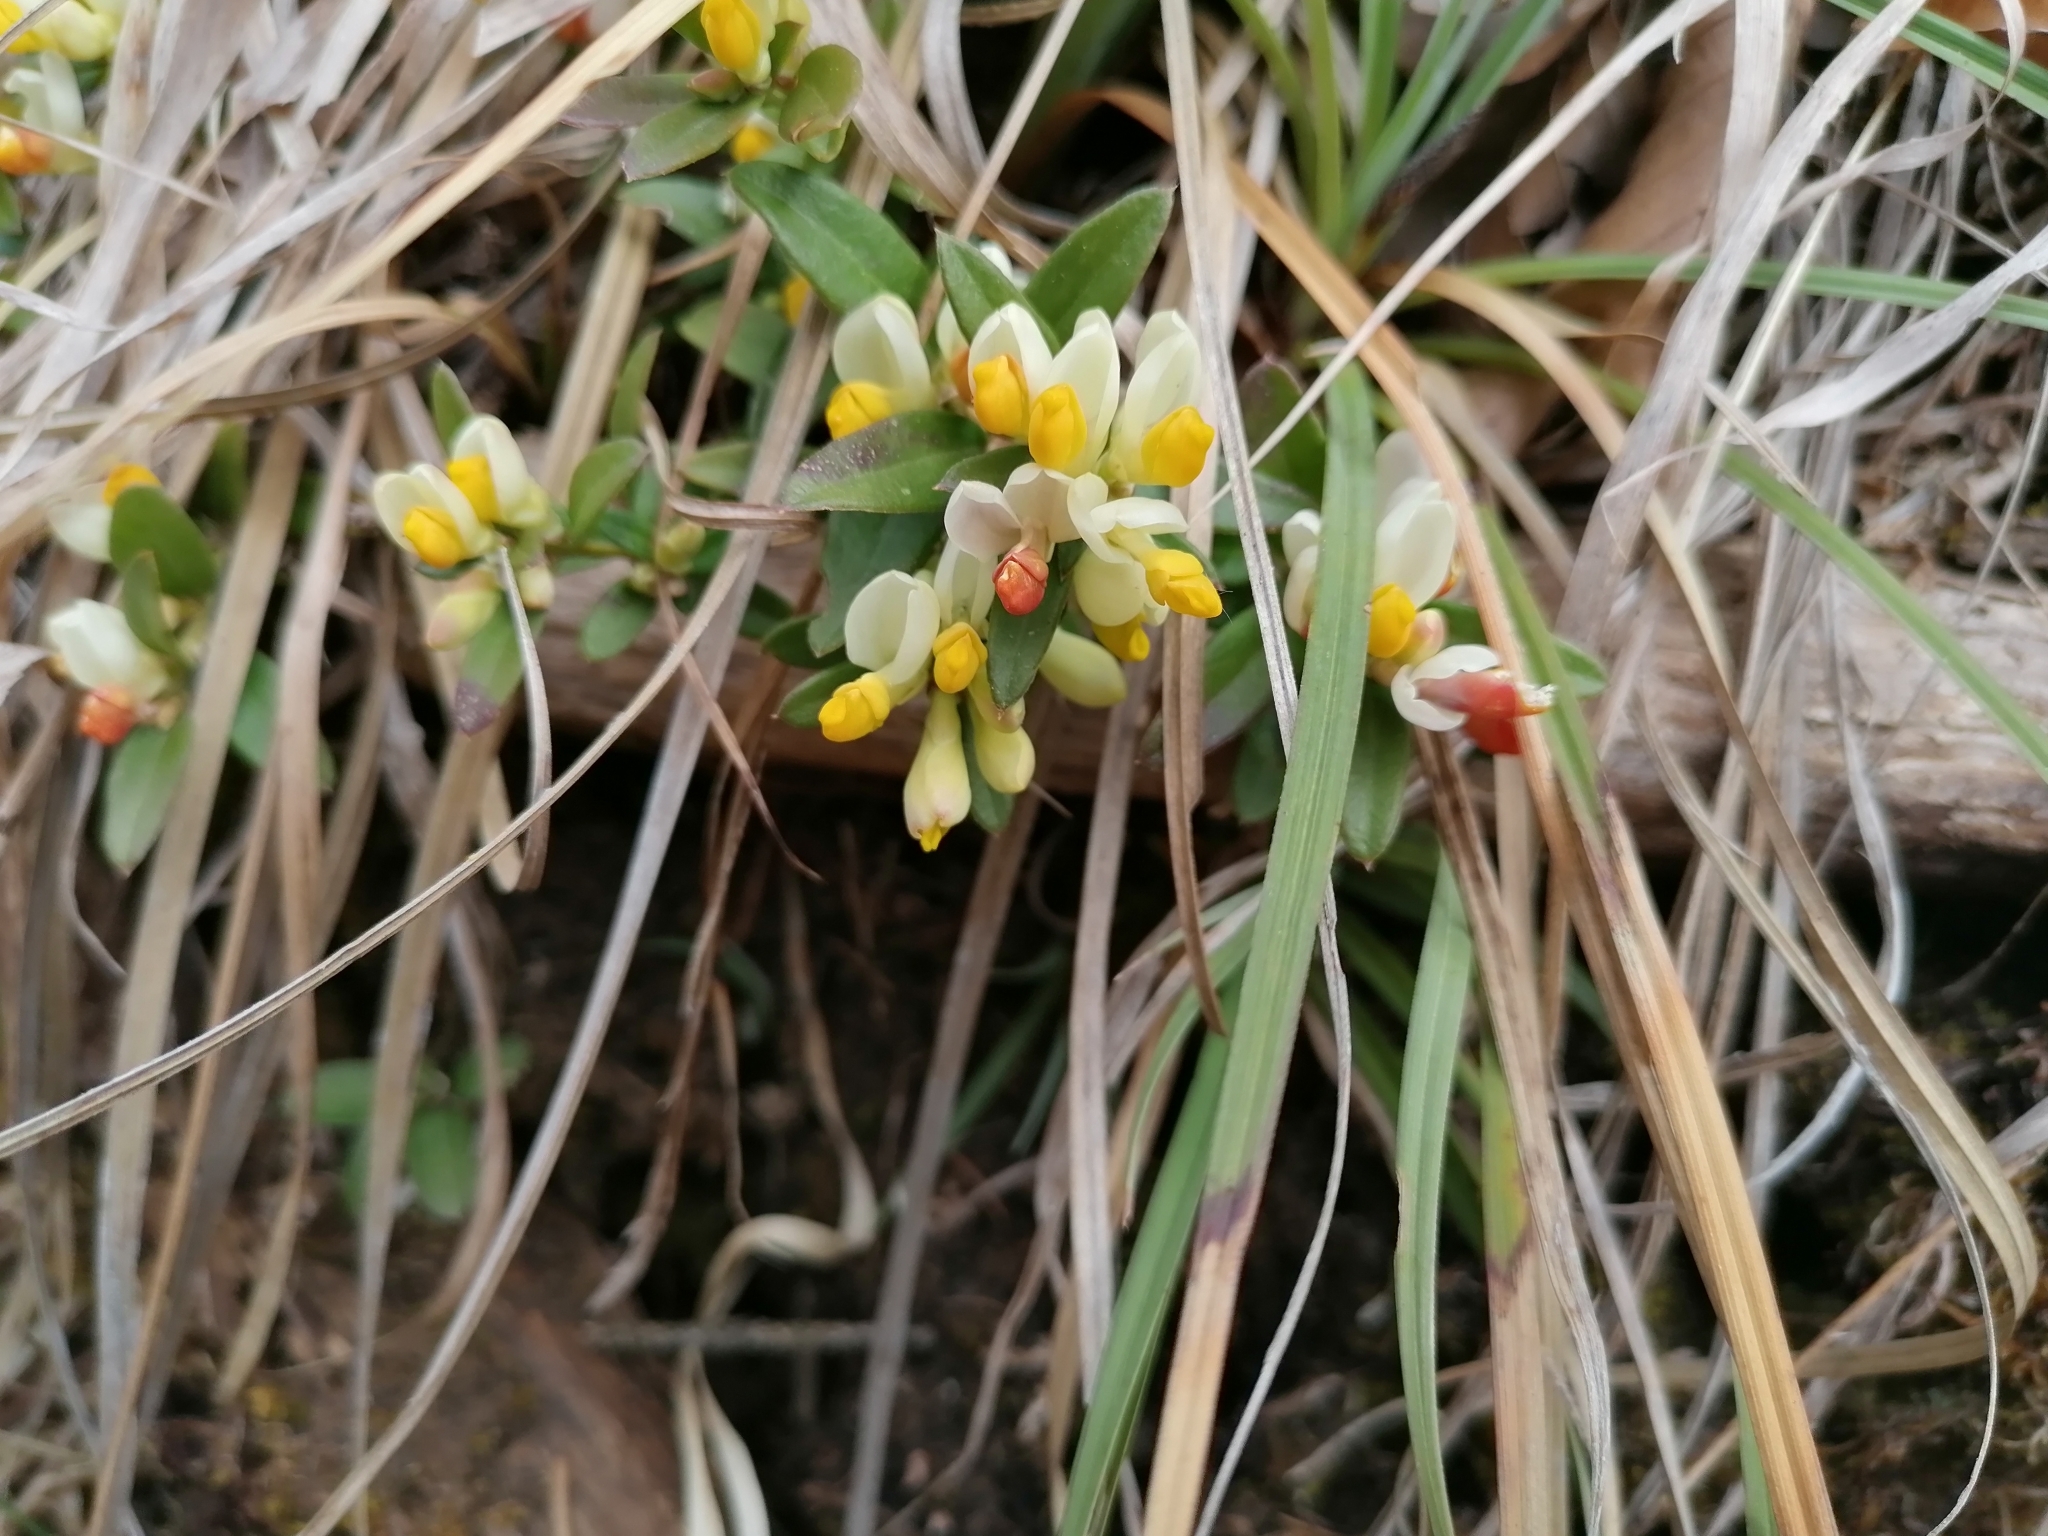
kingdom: Plantae
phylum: Tracheophyta
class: Magnoliopsida
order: Fabales
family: Polygalaceae
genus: Polygaloides
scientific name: Polygaloides chamaebuxus
